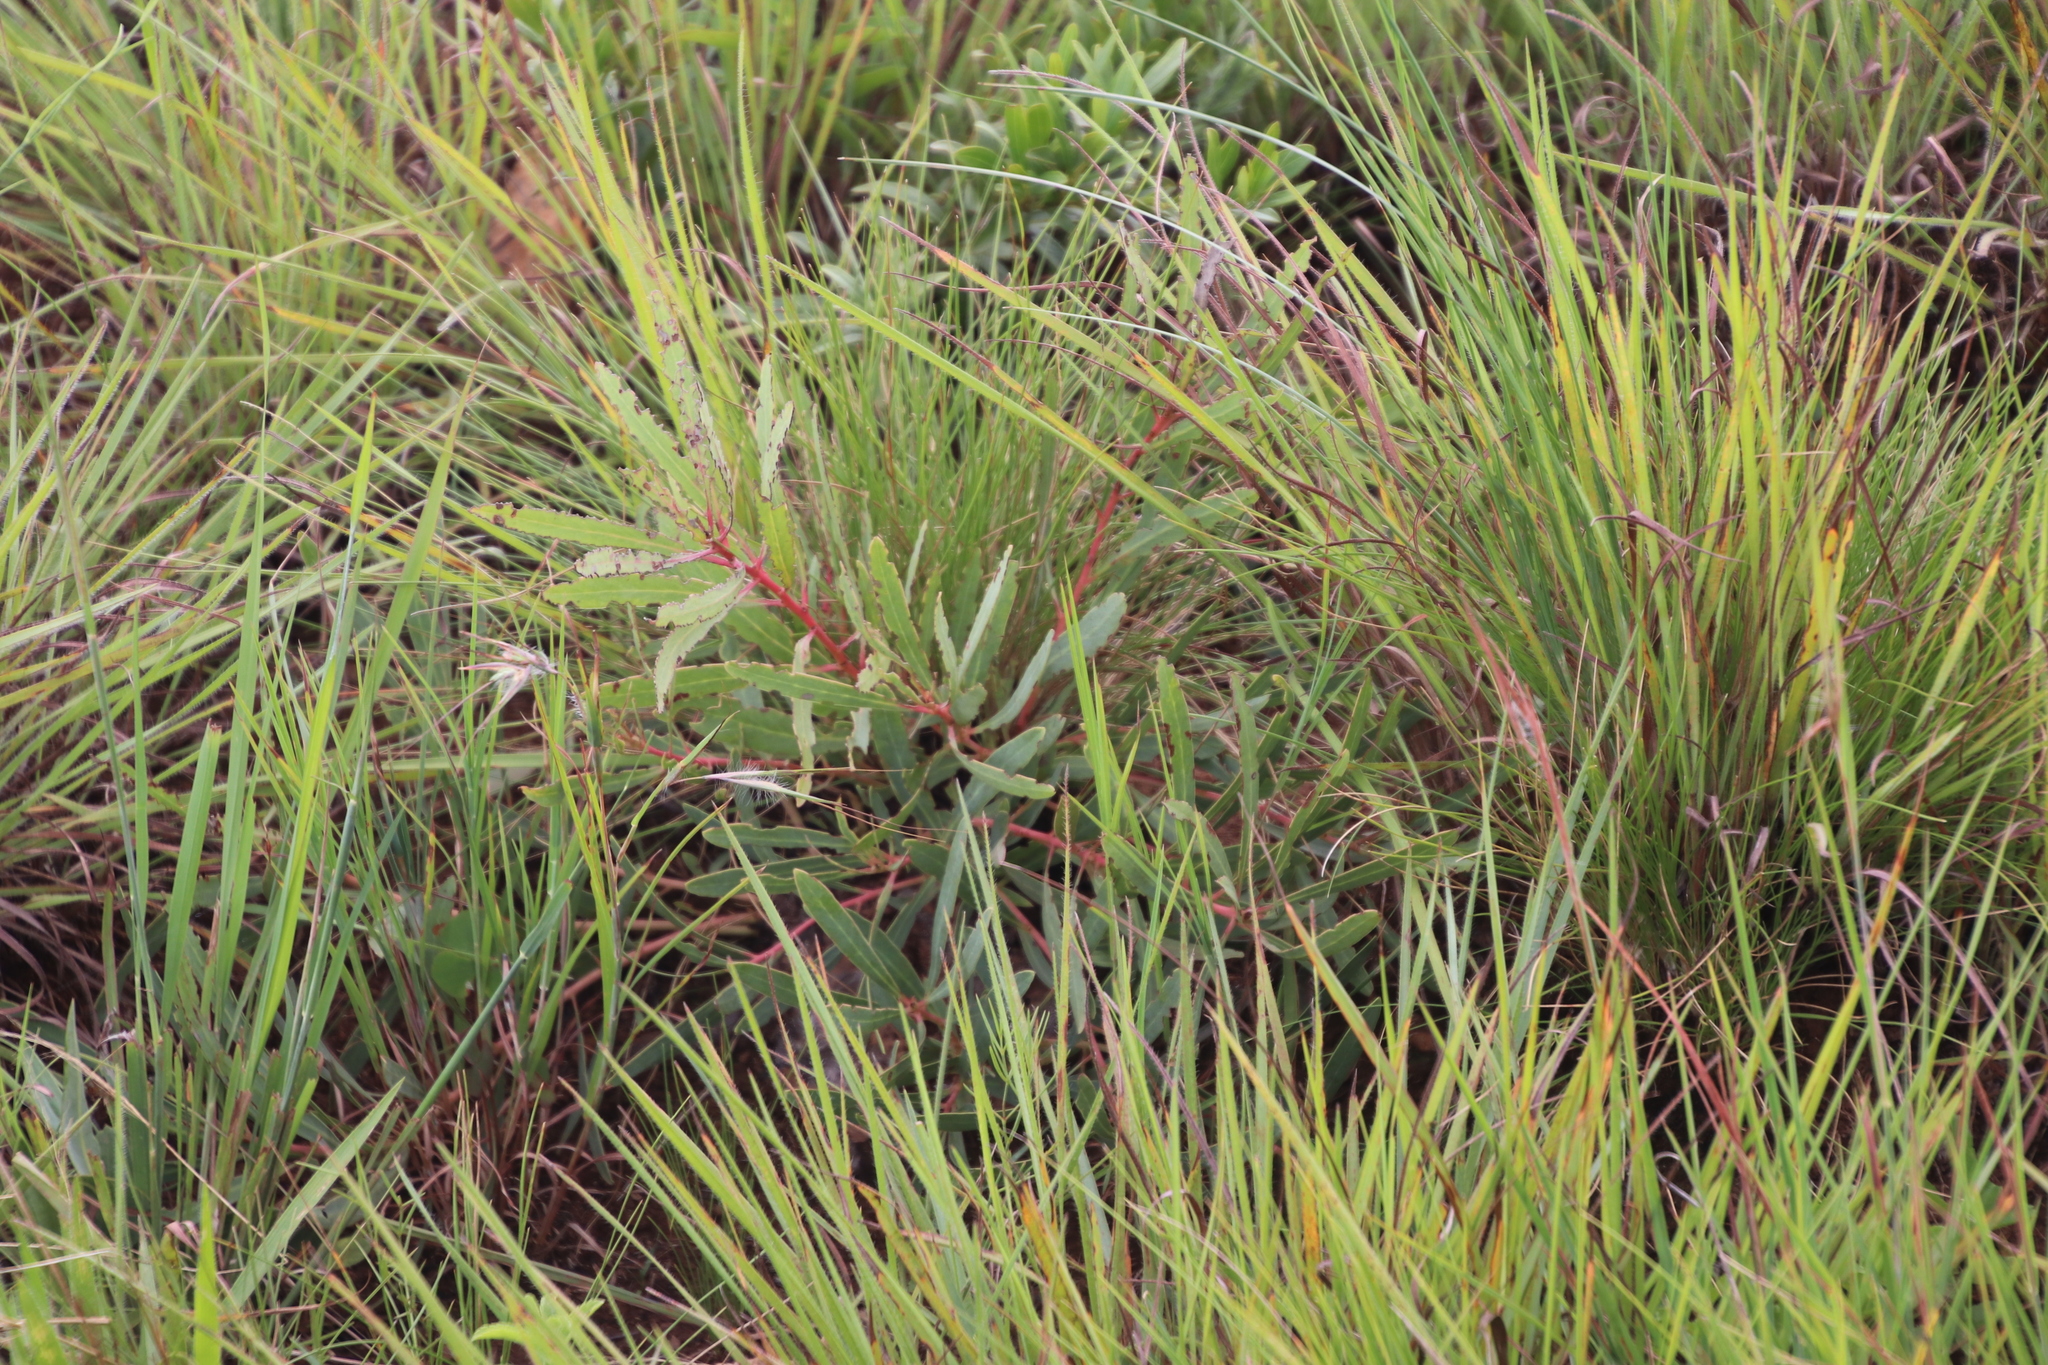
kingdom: Plantae
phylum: Tracheophyta
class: Magnoliopsida
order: Proteales
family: Proteaceae
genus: Protea
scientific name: Protea simplex
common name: Dwarf grassveld sugarbush
